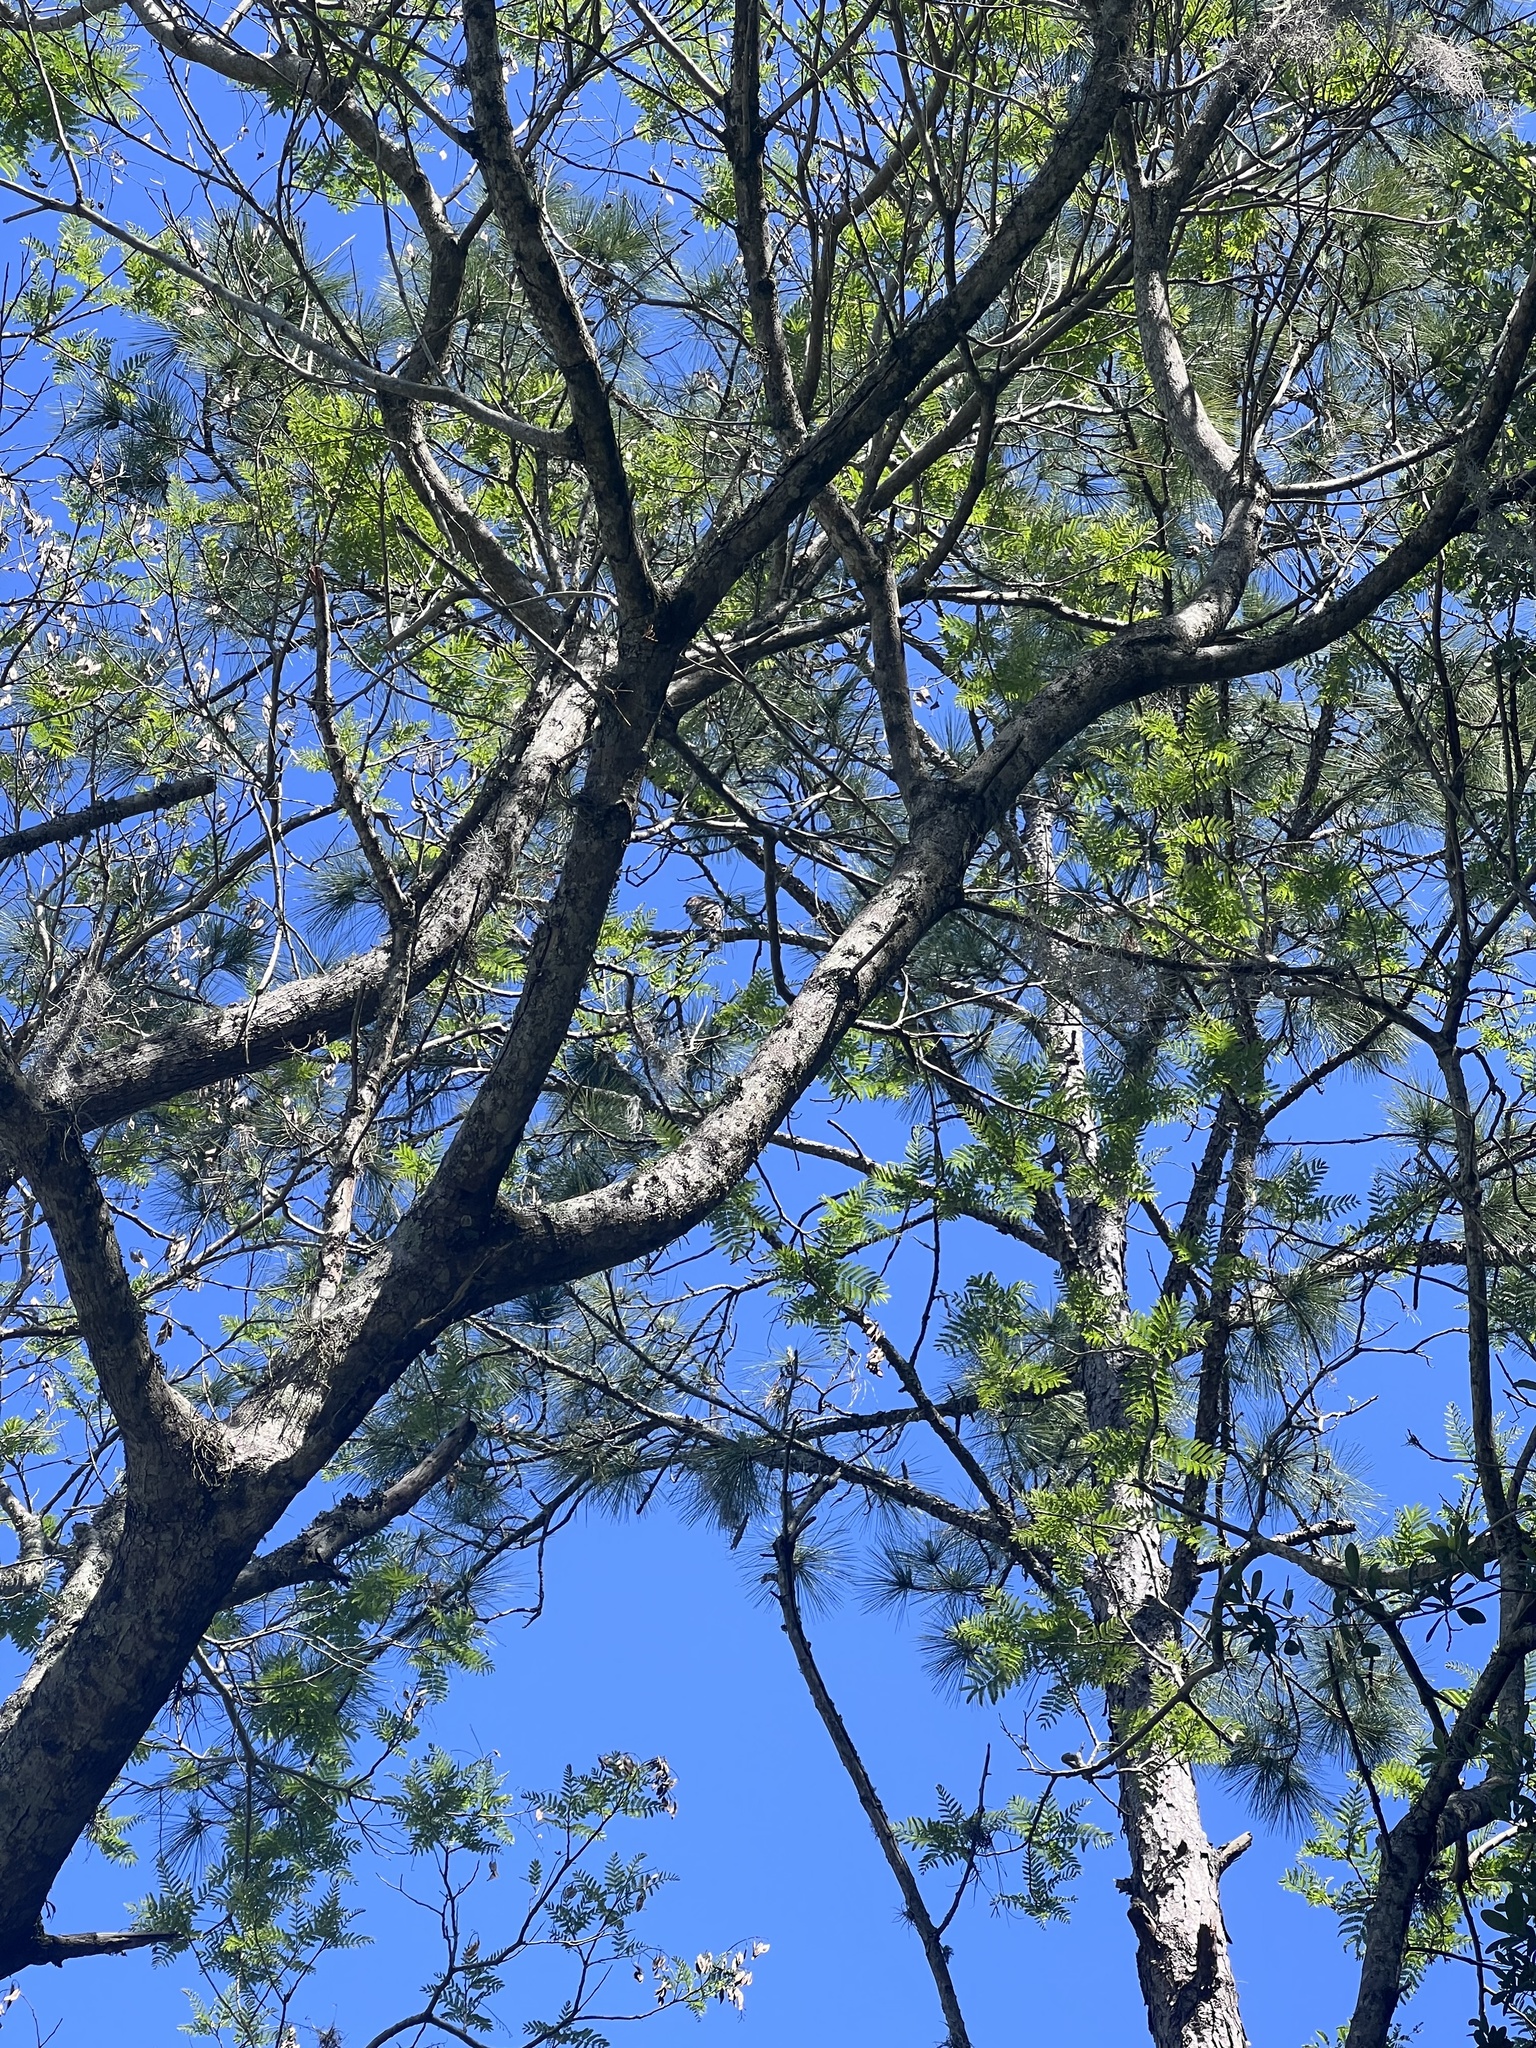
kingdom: Animalia
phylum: Chordata
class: Aves
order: Accipitriformes
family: Accipitridae
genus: Buteo
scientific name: Buteo lineatus
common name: Red-shouldered hawk
